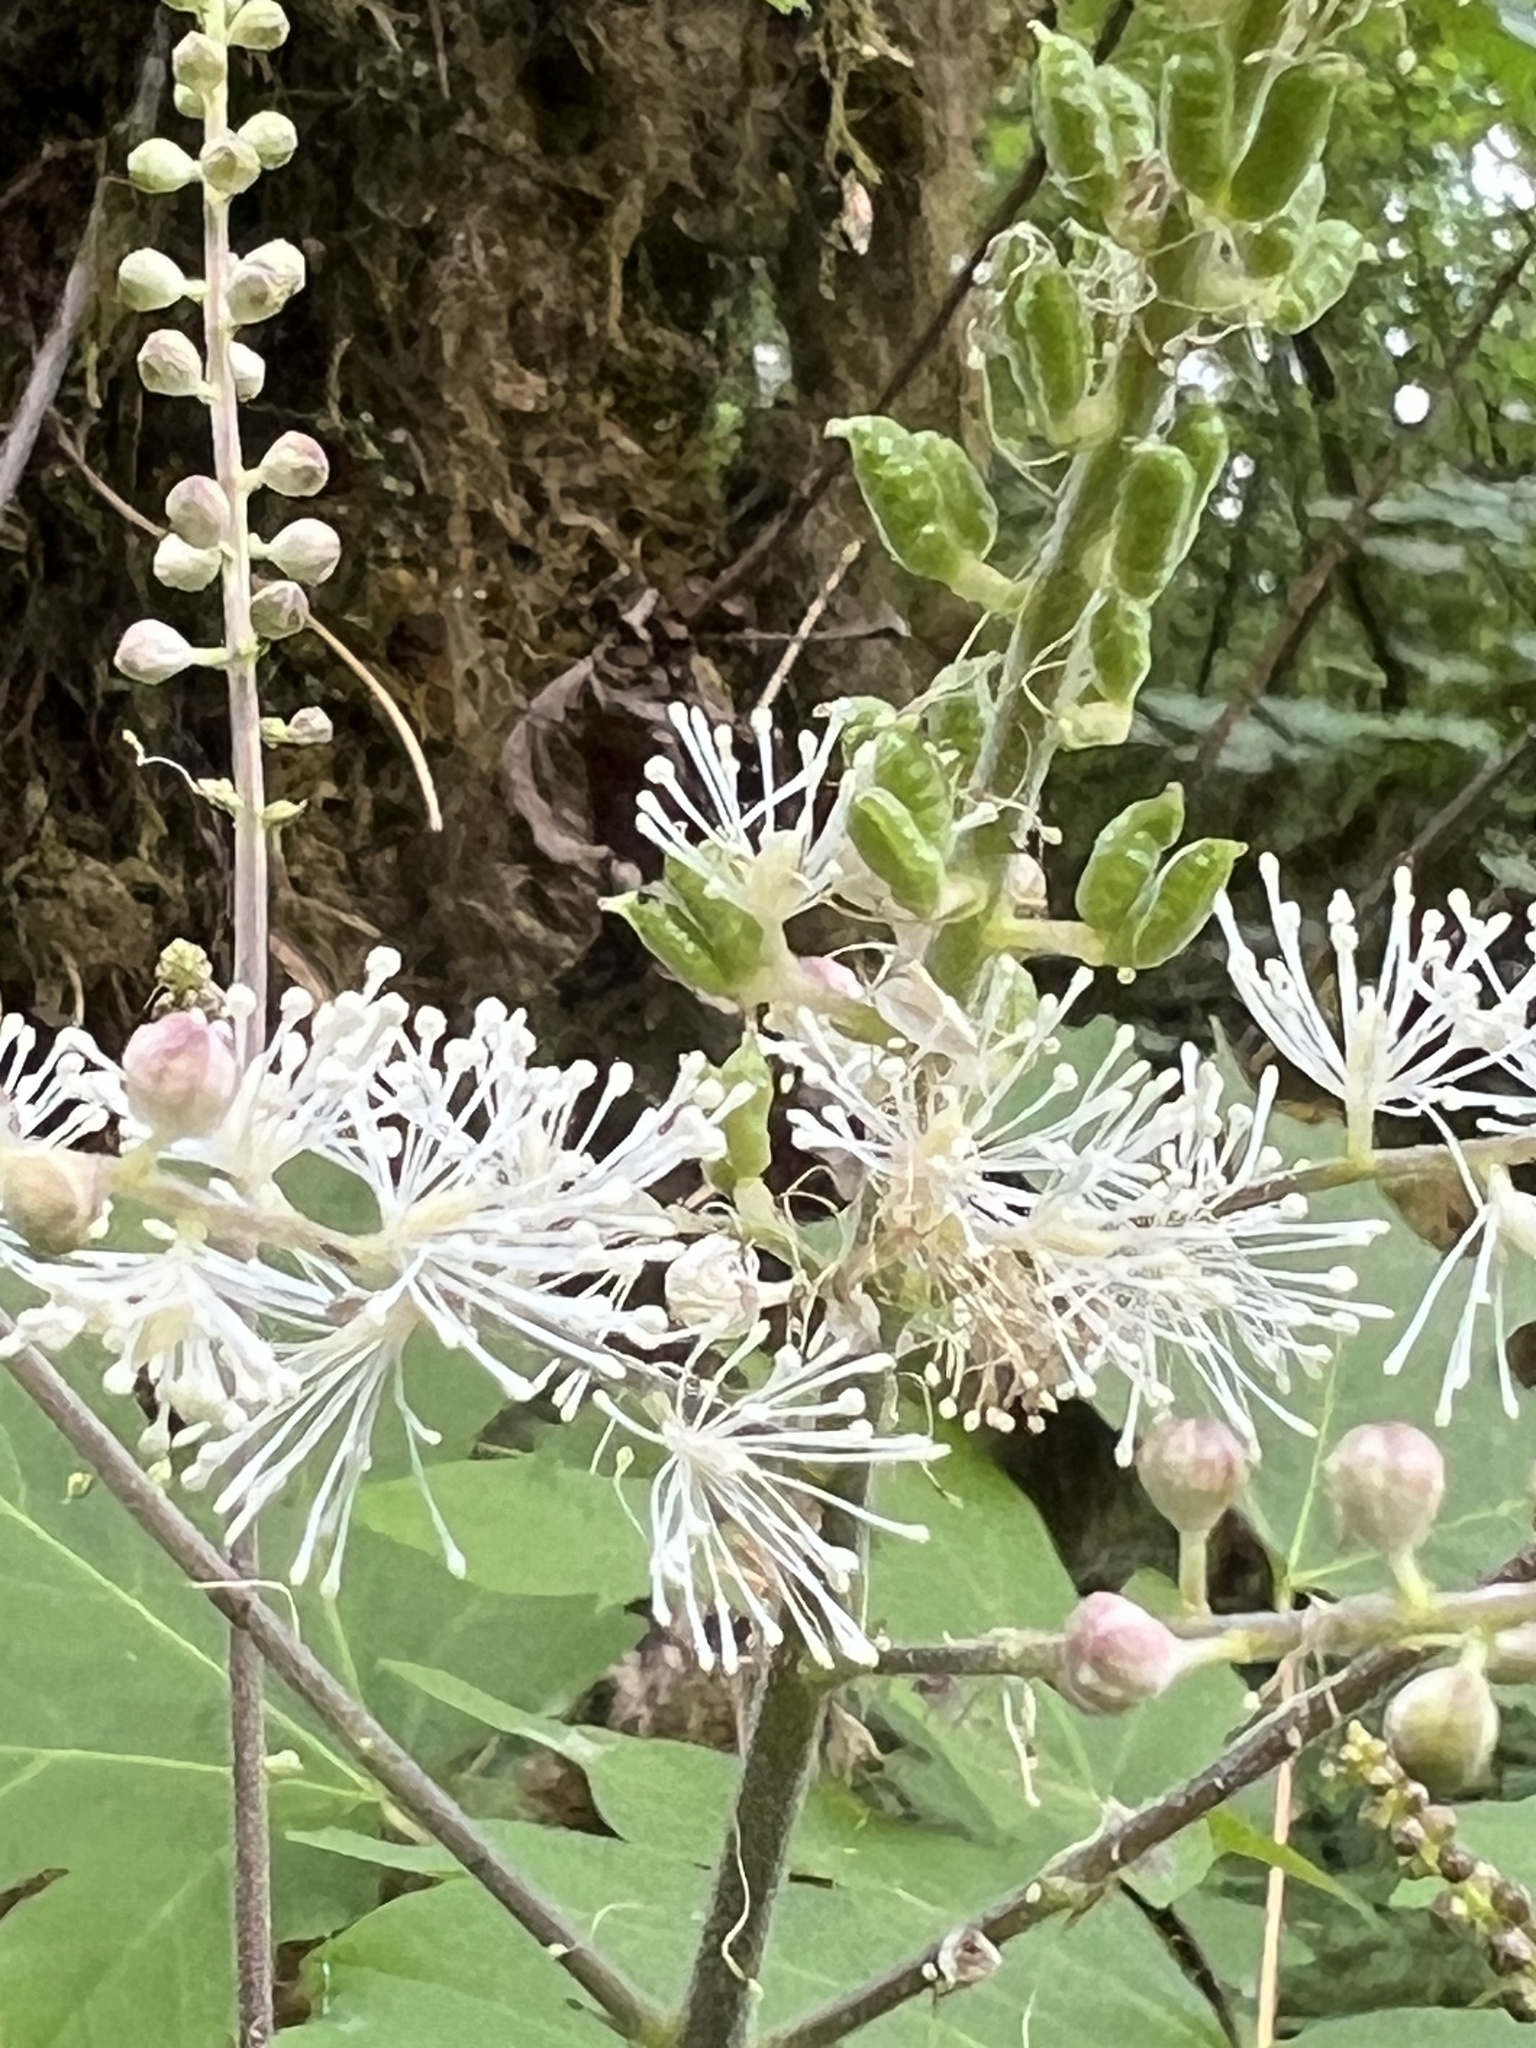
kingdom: Plantae
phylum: Tracheophyta
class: Magnoliopsida
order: Ranunculales
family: Ranunculaceae
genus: Actaea
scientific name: Actaea elata
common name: Tall bugbane
